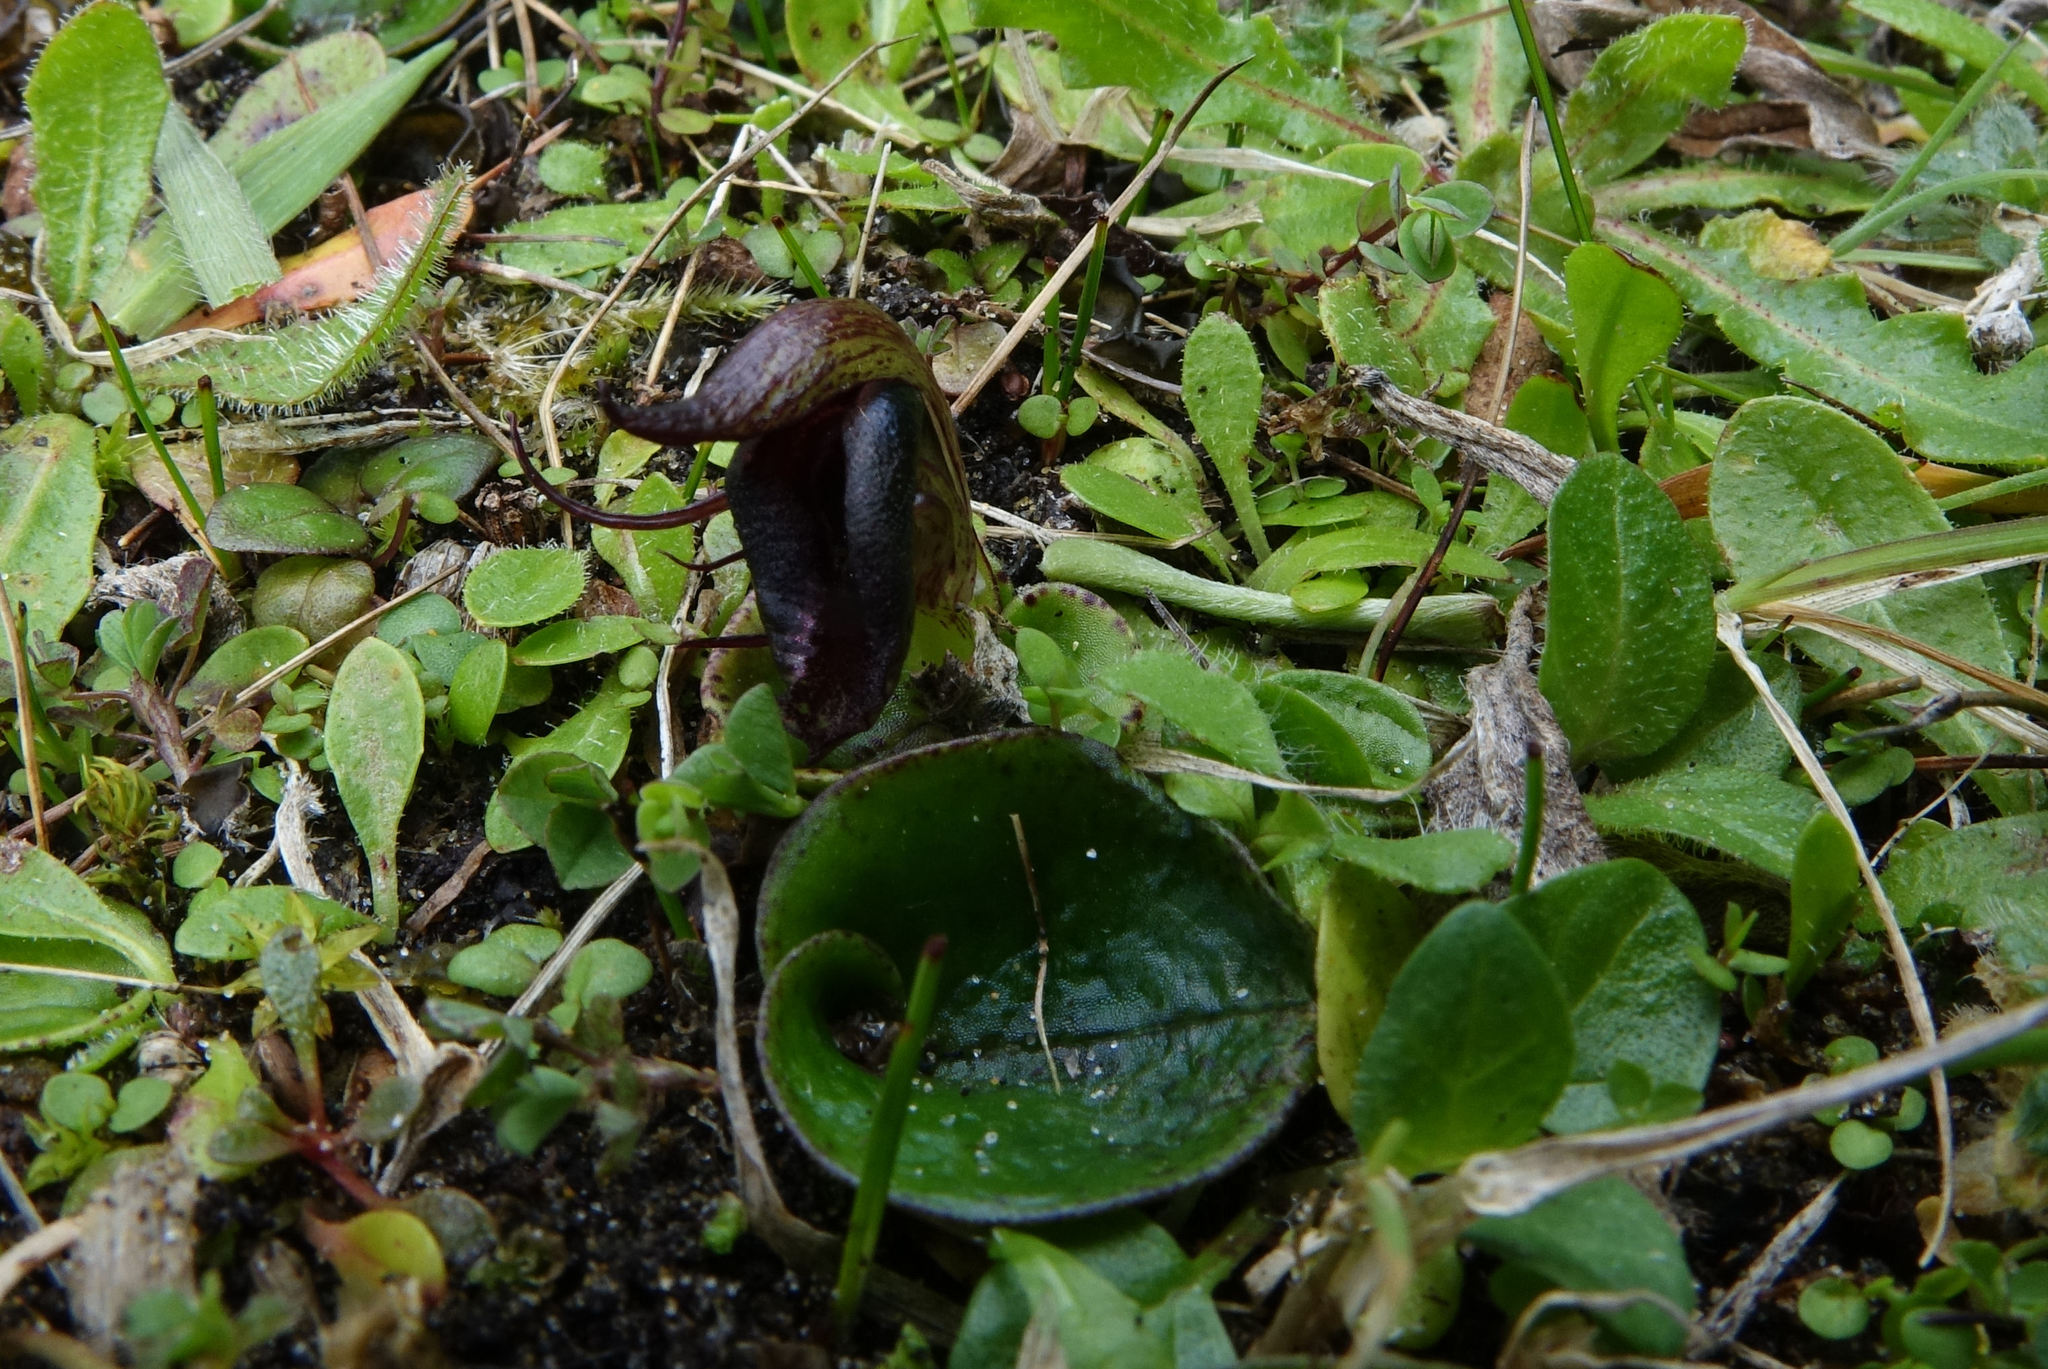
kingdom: Plantae
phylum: Tracheophyta
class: Liliopsida
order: Asparagales
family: Orchidaceae
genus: Corybas
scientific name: Corybas orbiculatus
